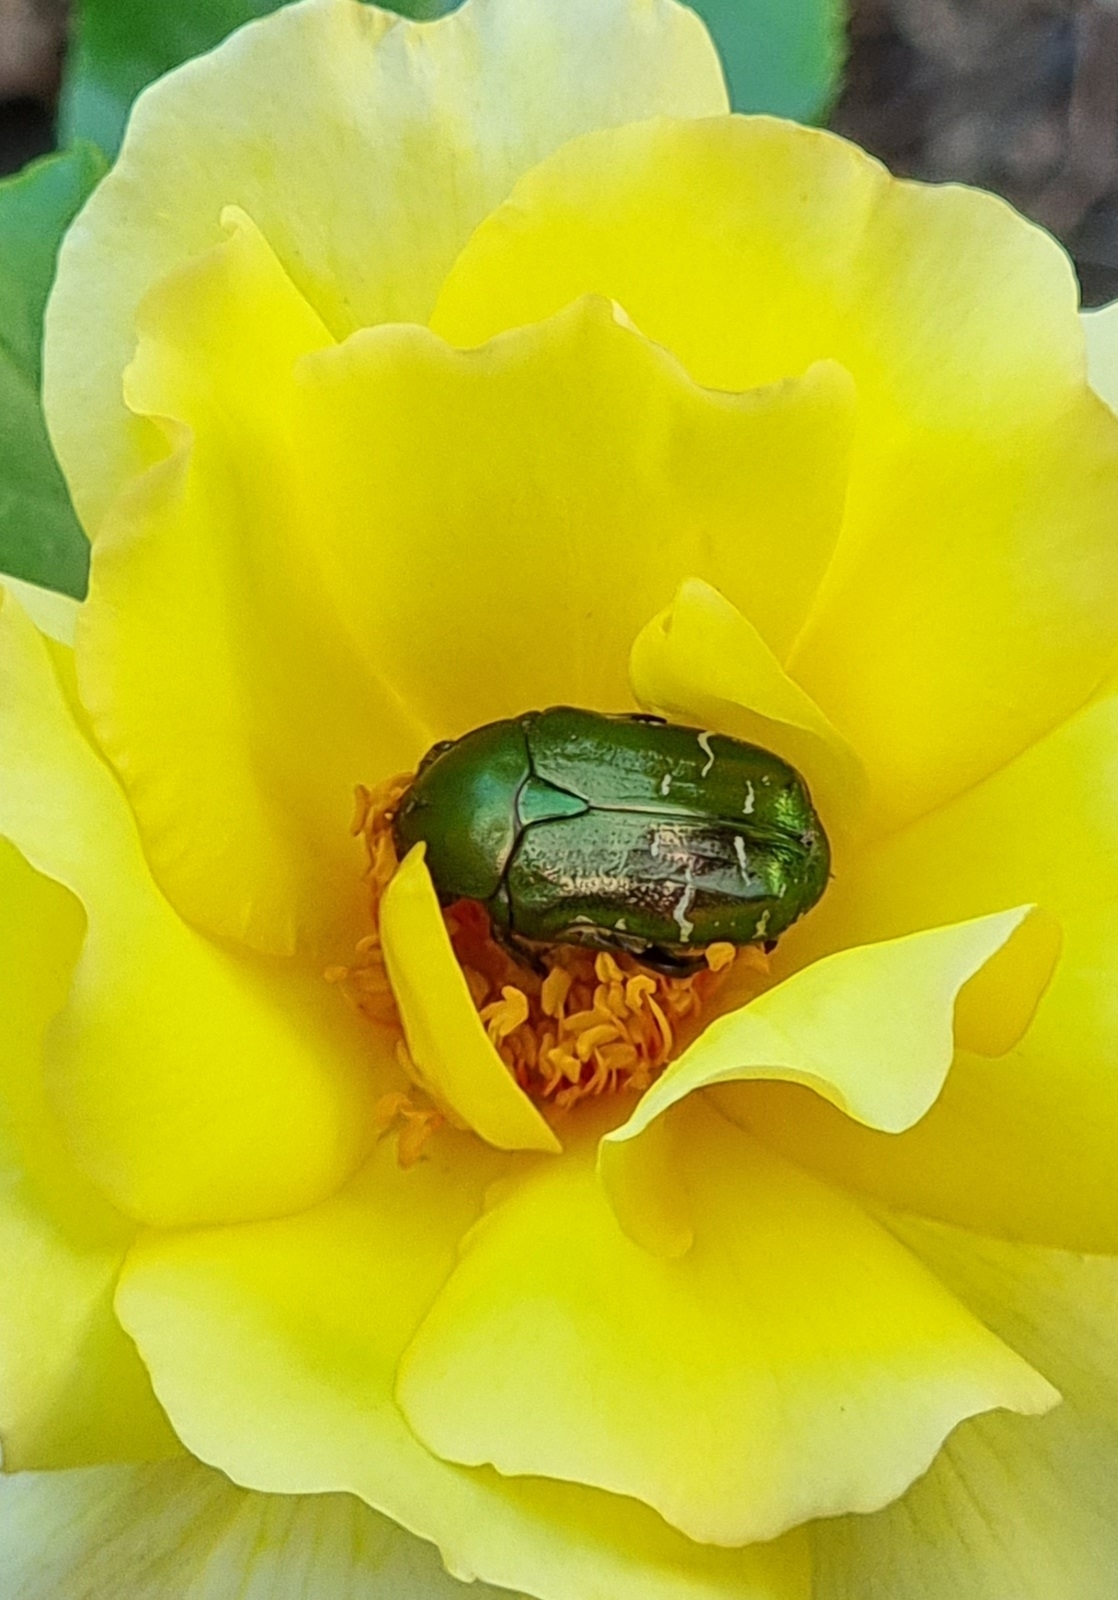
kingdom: Animalia
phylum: Arthropoda
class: Insecta
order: Coleoptera
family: Scarabaeidae
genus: Cetonia
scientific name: Cetonia aurata
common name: Rose chafer
